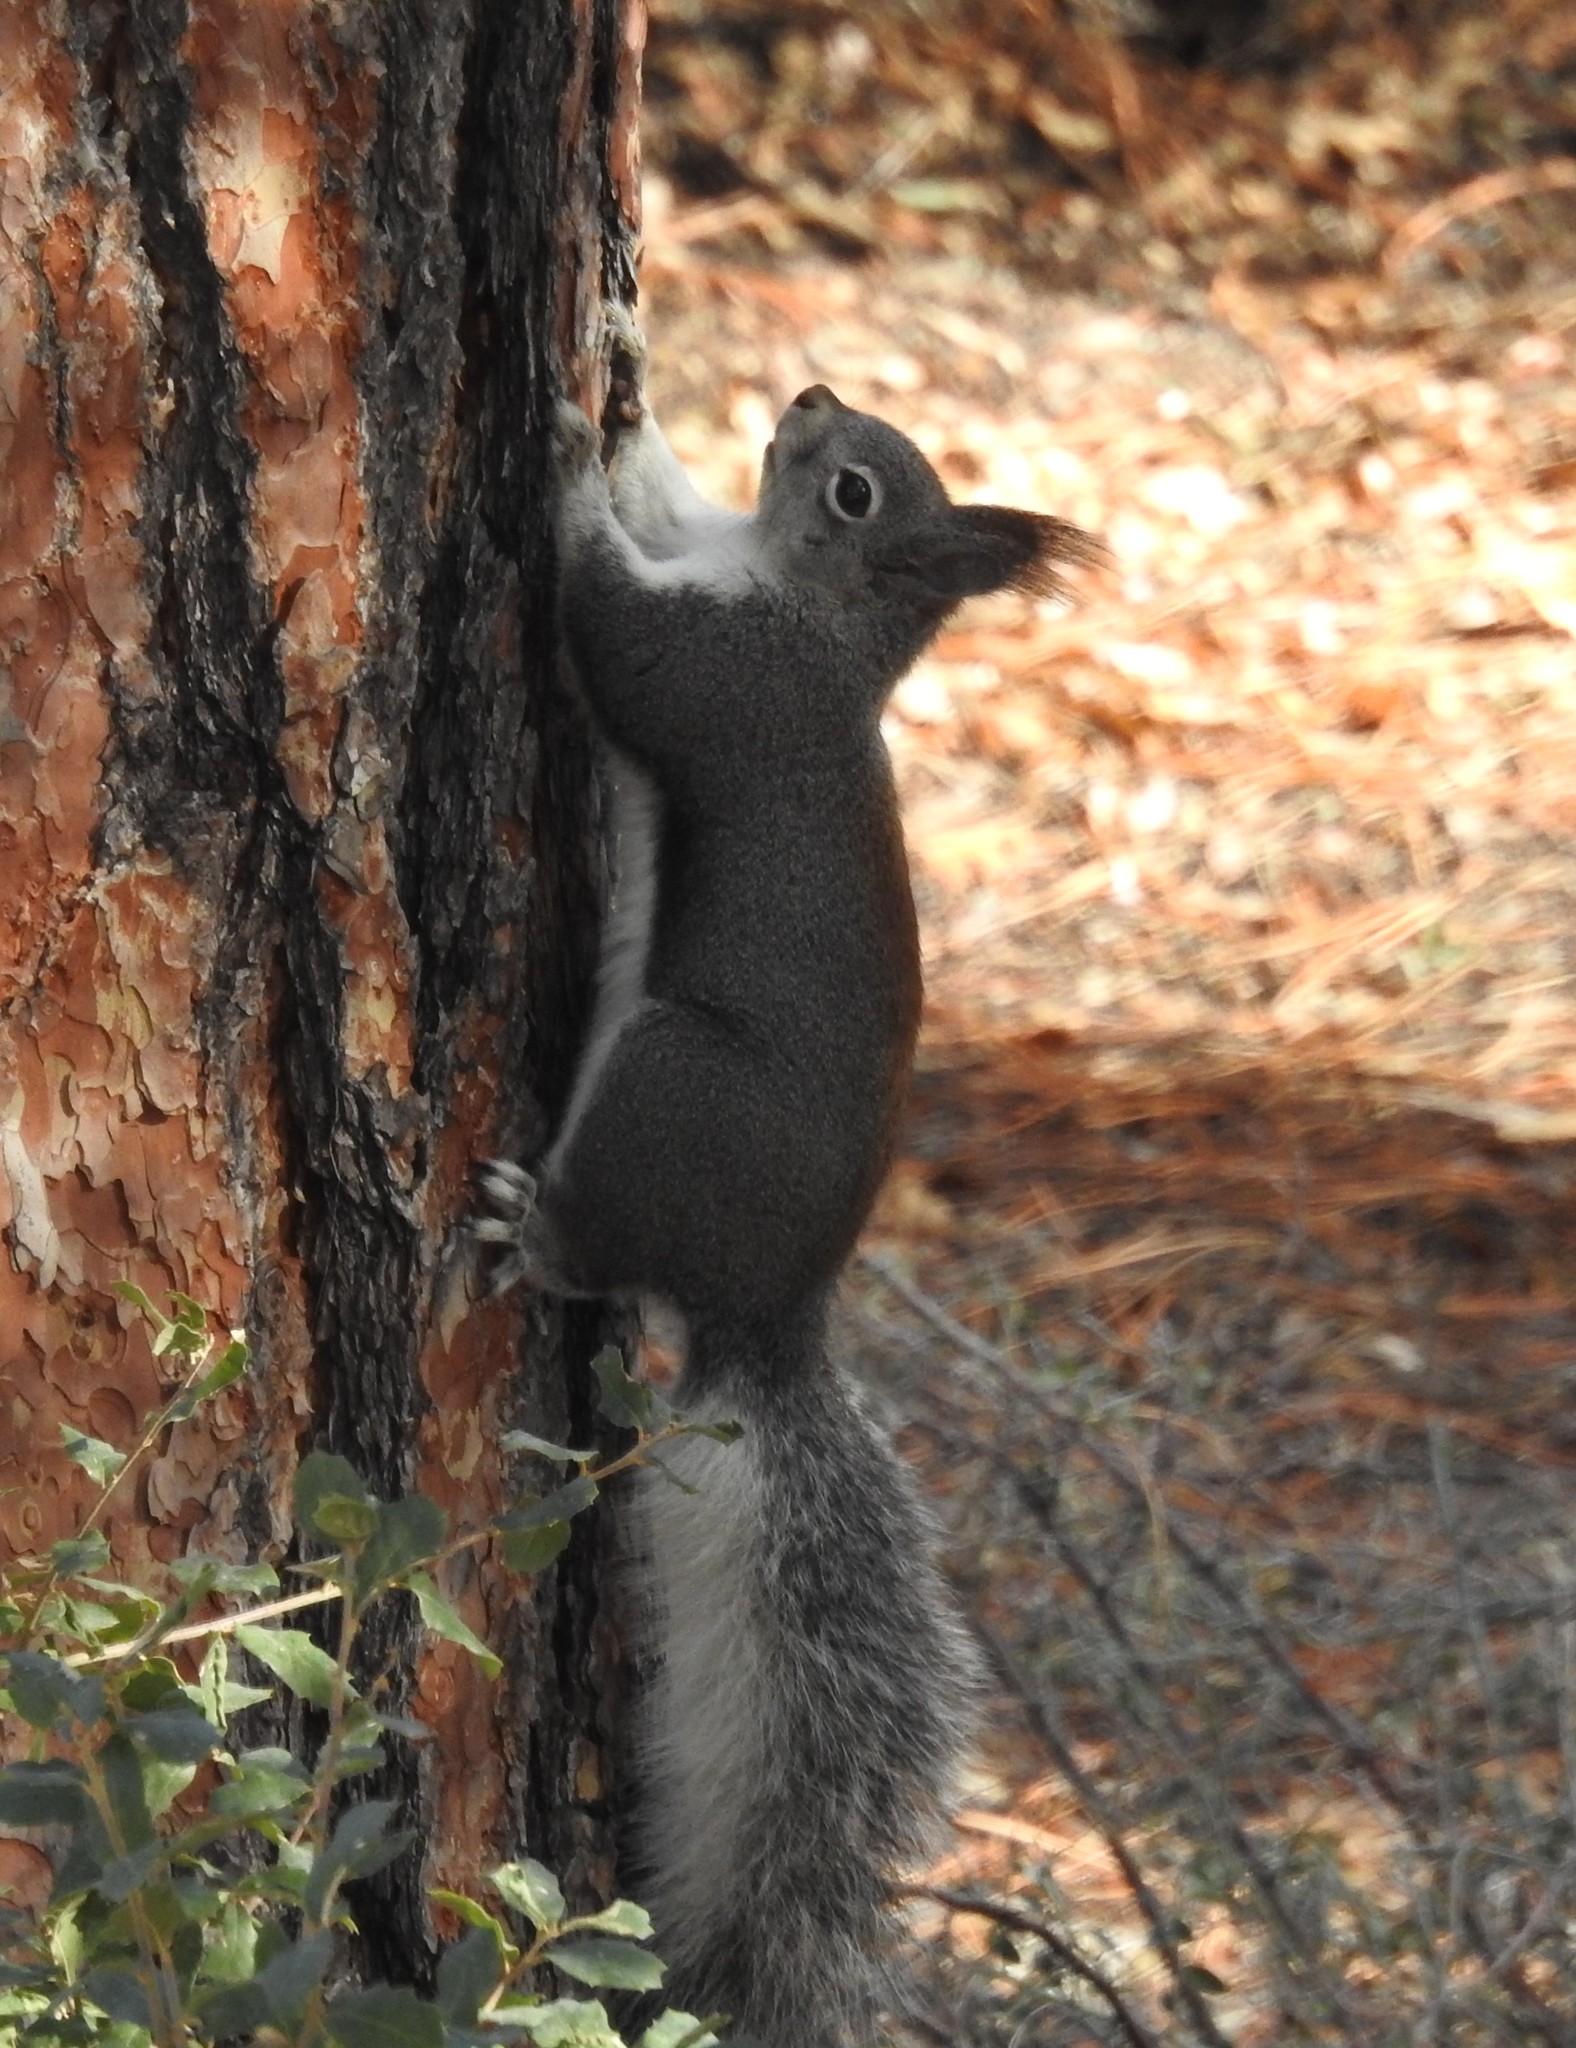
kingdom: Animalia
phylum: Chordata
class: Mammalia
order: Rodentia
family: Sciuridae
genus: Sciurus
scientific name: Sciurus aberti
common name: Abert's squirrel
